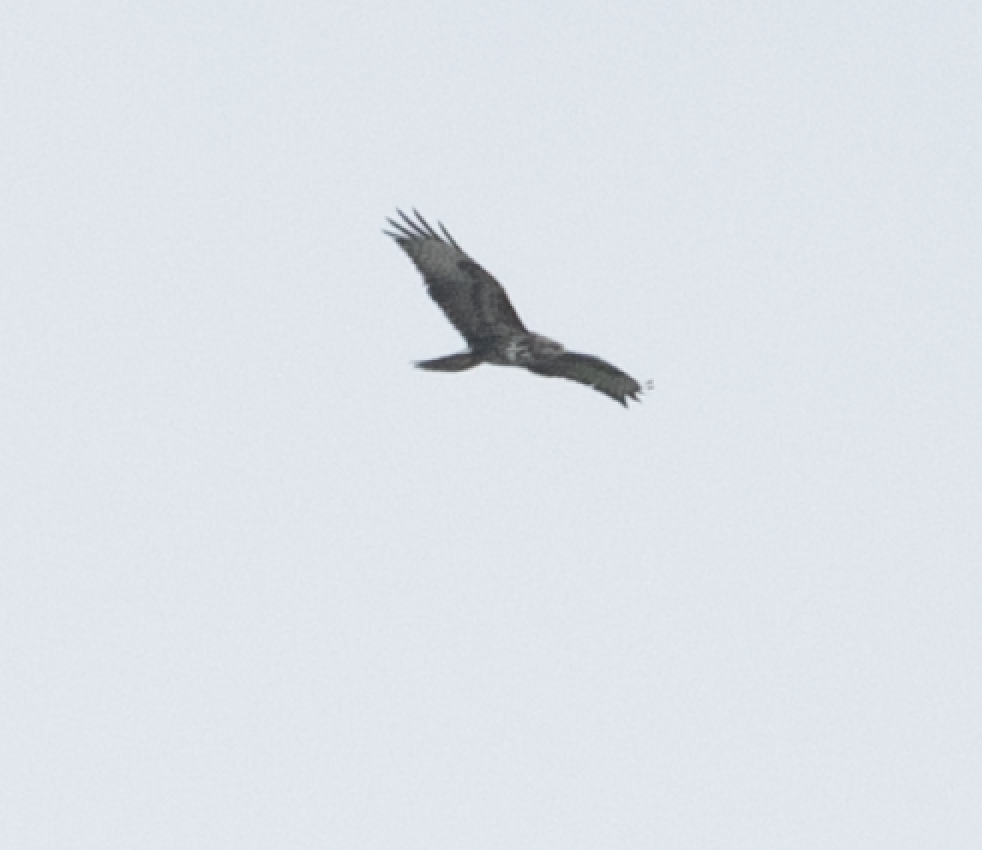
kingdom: Animalia
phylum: Chordata
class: Aves
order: Accipitriformes
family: Accipitridae
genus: Buteo
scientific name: Buteo buteo
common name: Common buzzard
